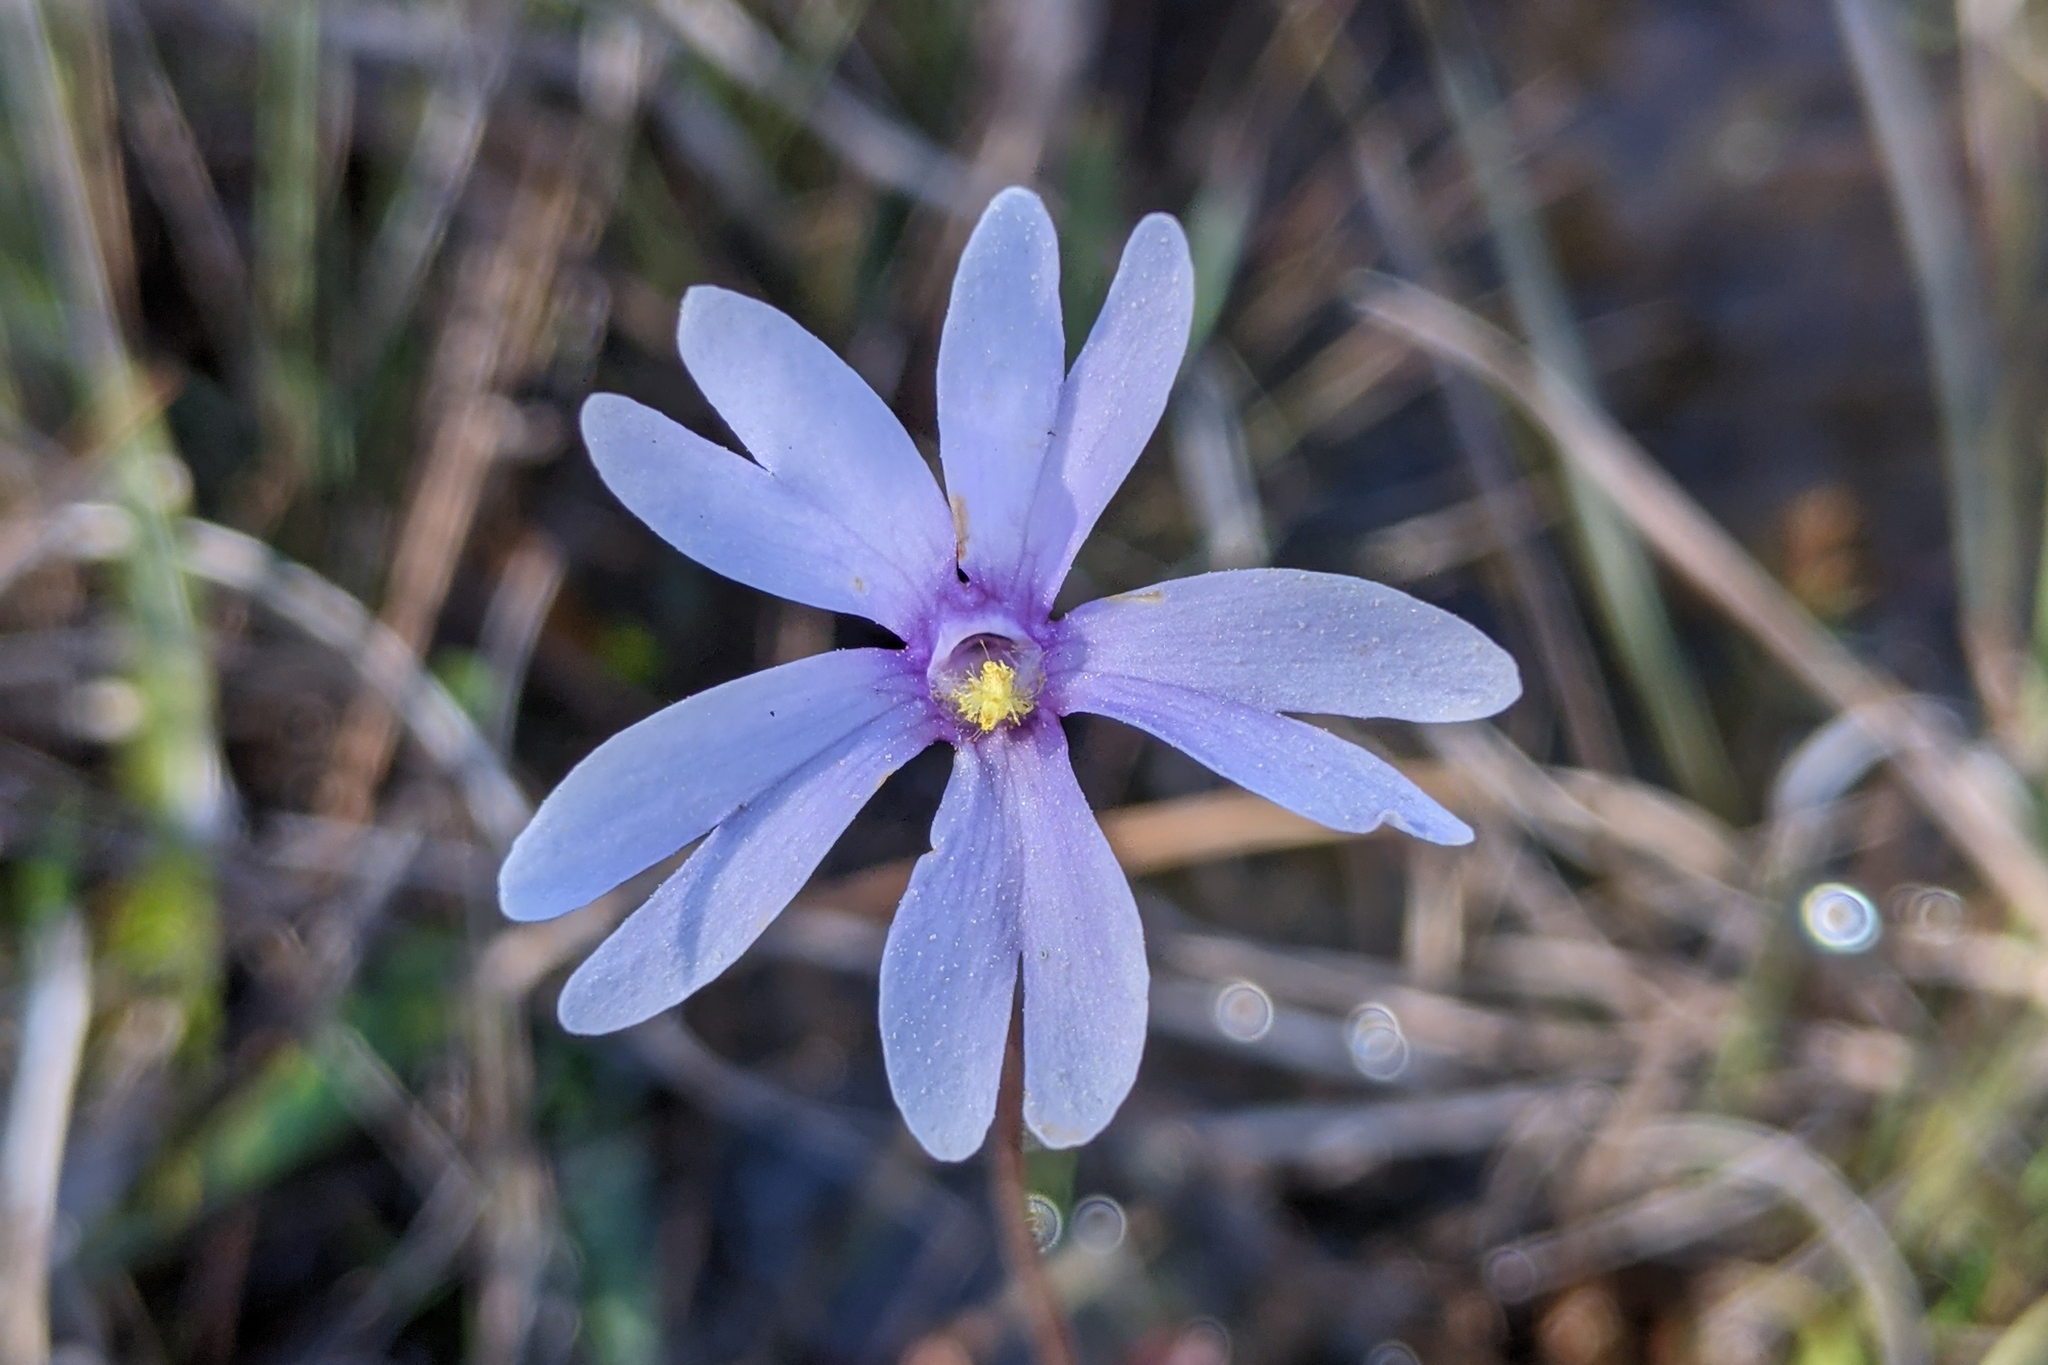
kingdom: Plantae
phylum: Tracheophyta
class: Magnoliopsida
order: Lamiales
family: Lentibulariaceae
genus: Pinguicula
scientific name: Pinguicula planifolia
